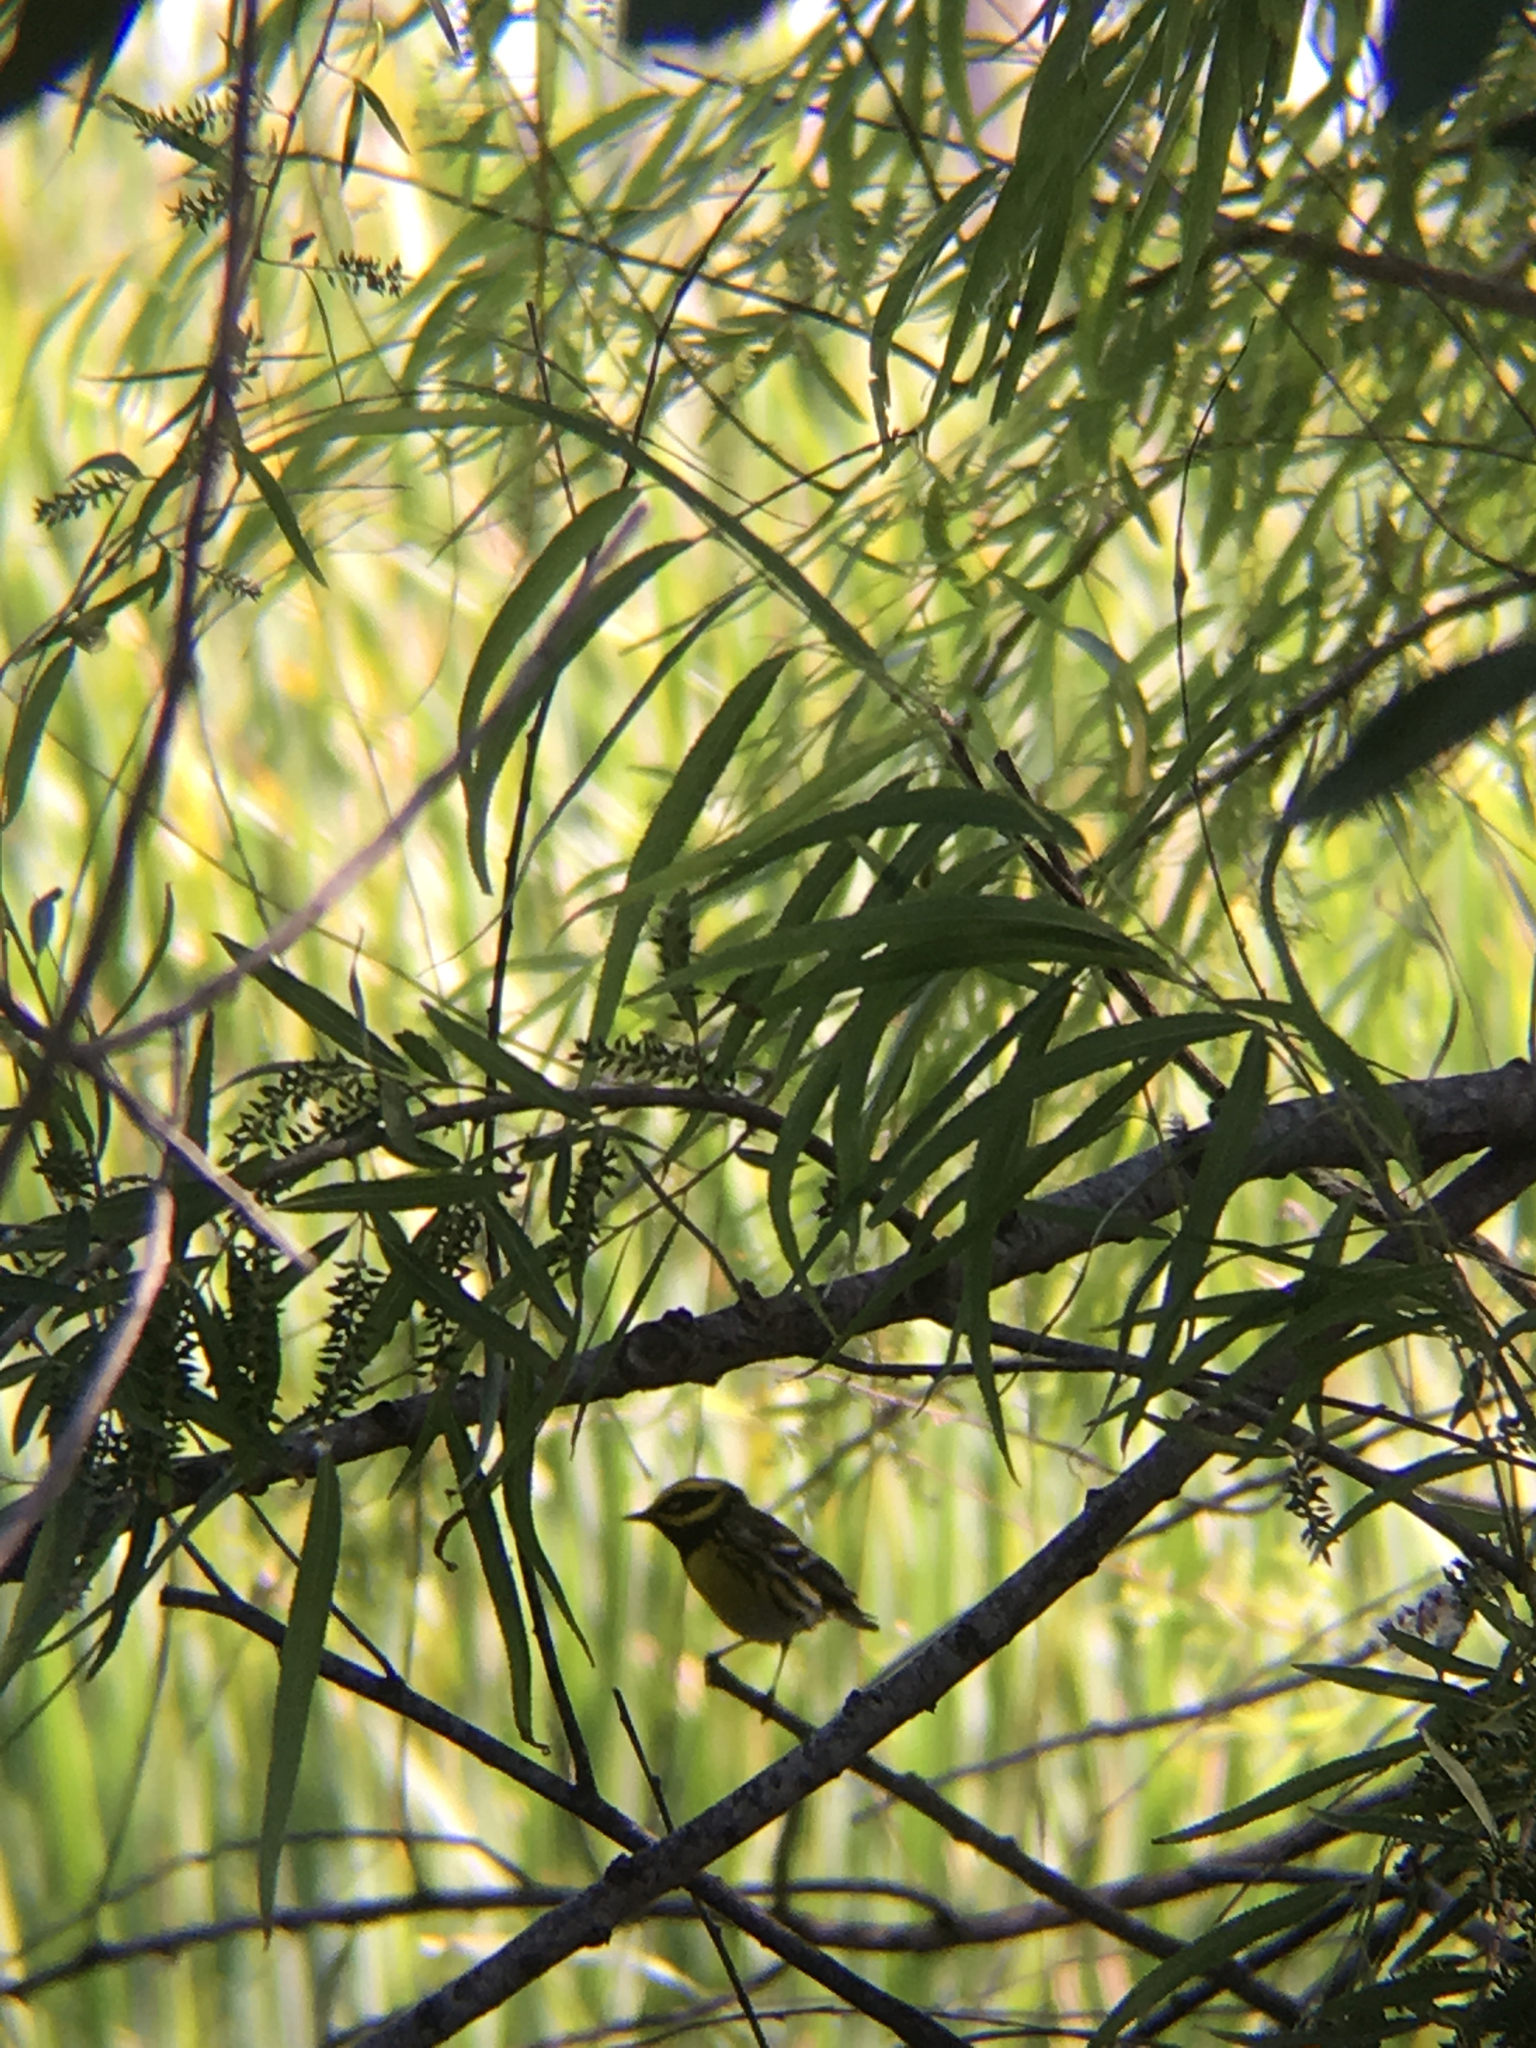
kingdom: Animalia
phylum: Chordata
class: Aves
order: Passeriformes
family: Parulidae
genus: Setophaga
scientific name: Setophaga townsendi
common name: Townsend's warbler
